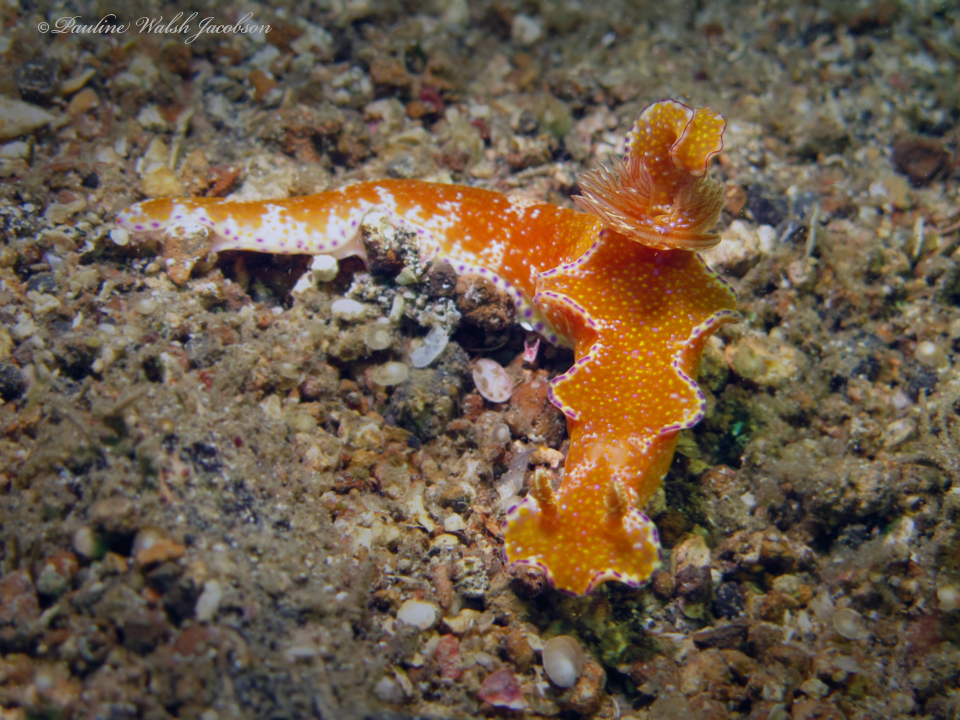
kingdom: Animalia
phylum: Mollusca
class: Gastropoda
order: Nudibranchia
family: Chromodorididae
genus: Ceratosoma
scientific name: Ceratosoma tenue
